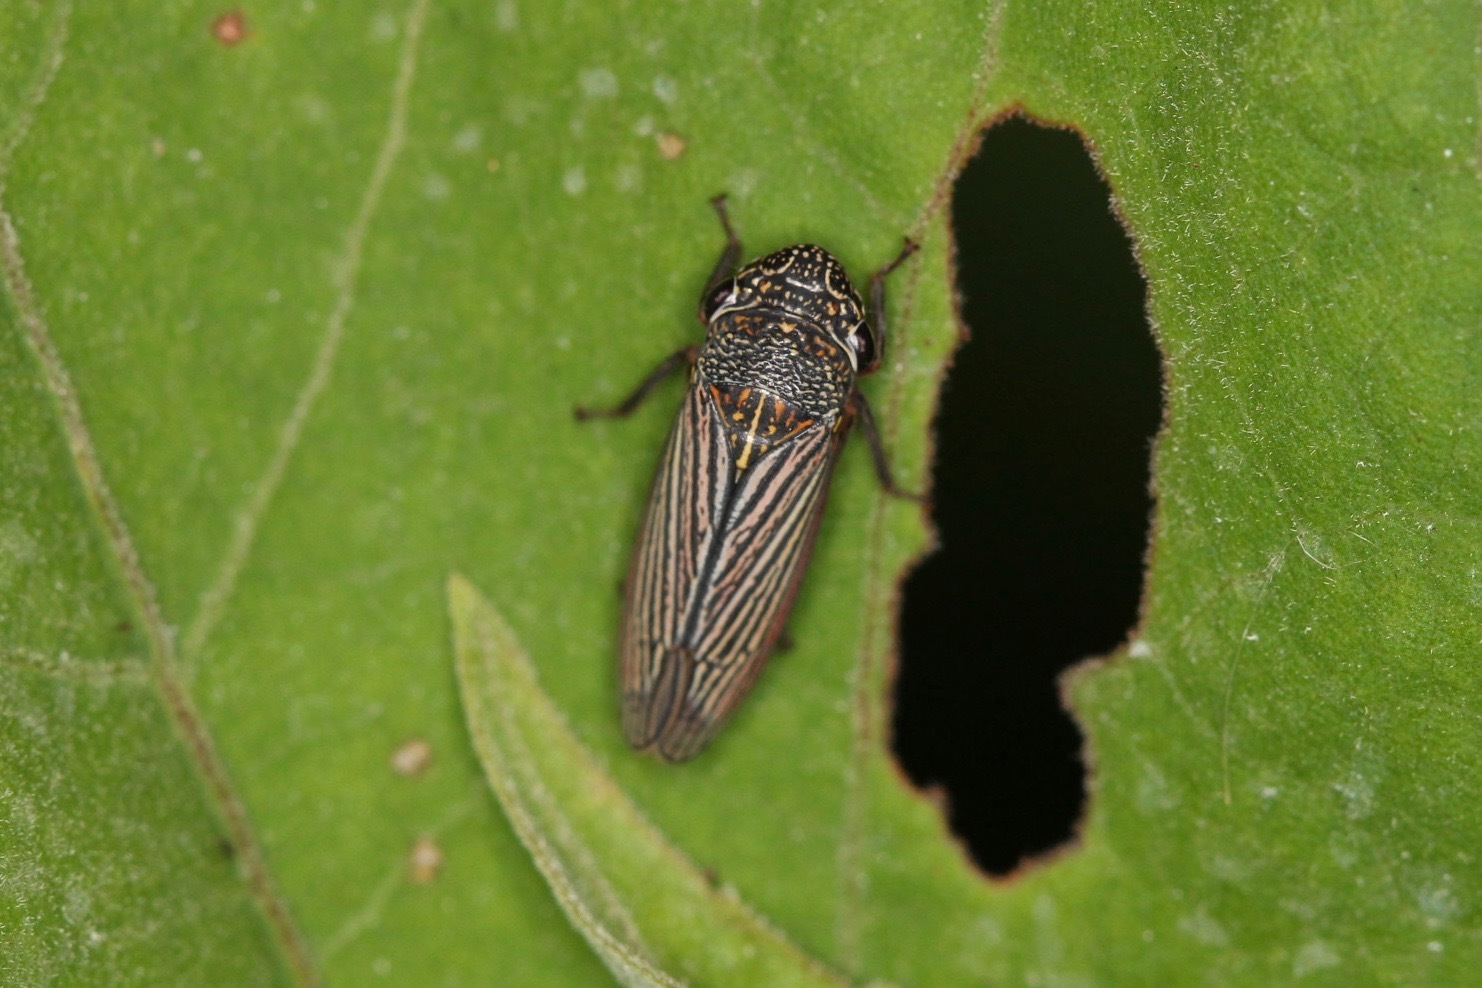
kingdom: Animalia
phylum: Arthropoda
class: Insecta
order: Hemiptera
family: Cicadellidae
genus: Cuerna
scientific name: Cuerna costalis
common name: Lateral-lined sharpshooter
